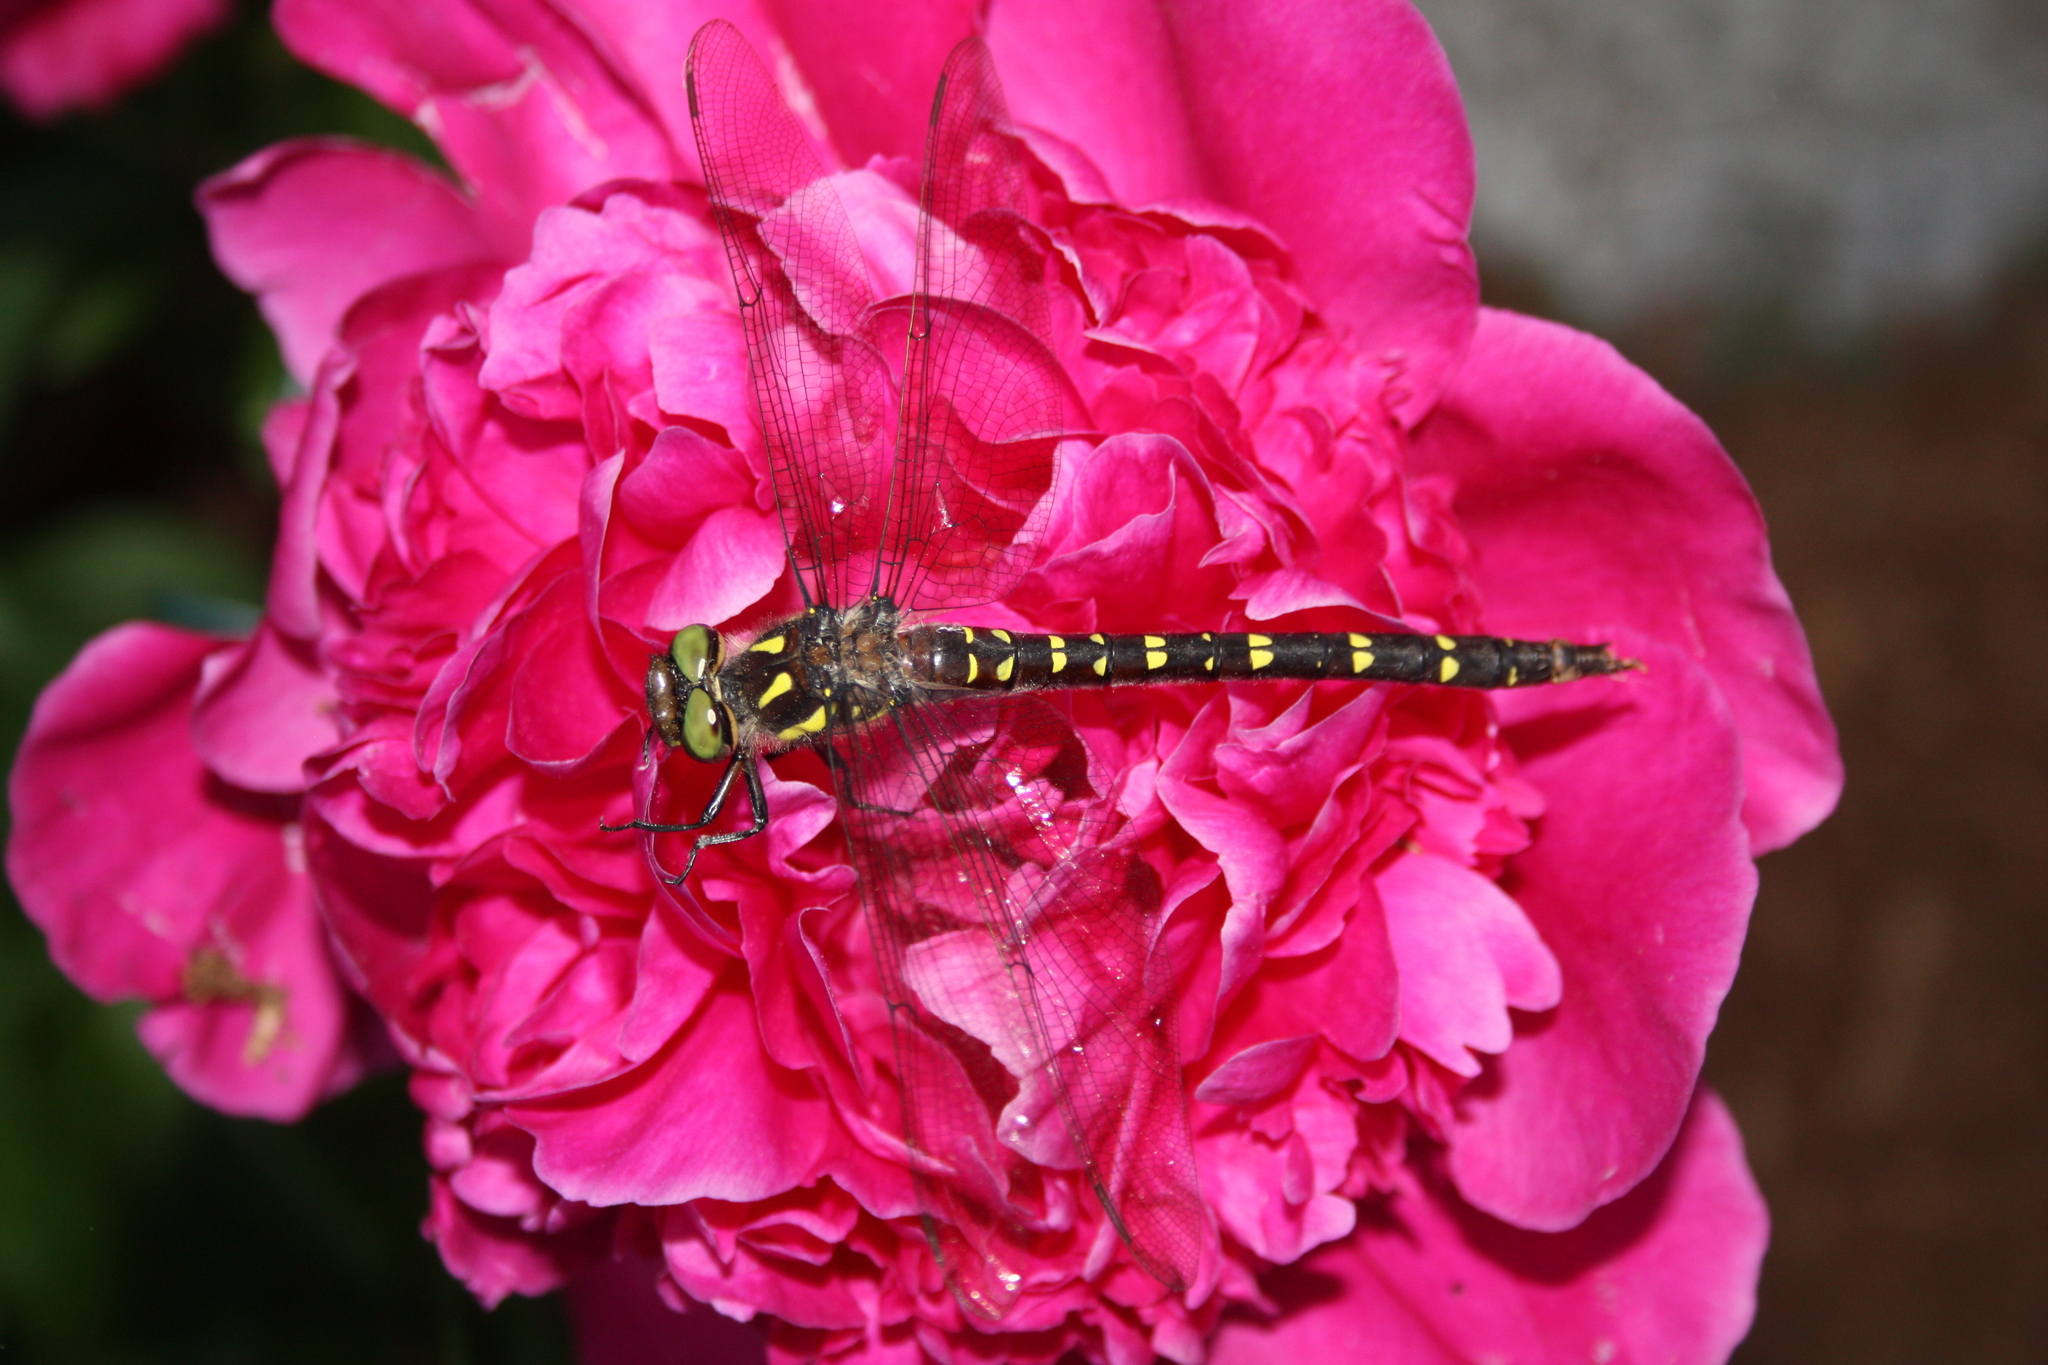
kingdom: Animalia
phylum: Arthropoda
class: Insecta
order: Odonata
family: Cordulegastridae
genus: Cordulegaster
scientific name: Cordulegaster maculata
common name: Twin-spotted spiketail
